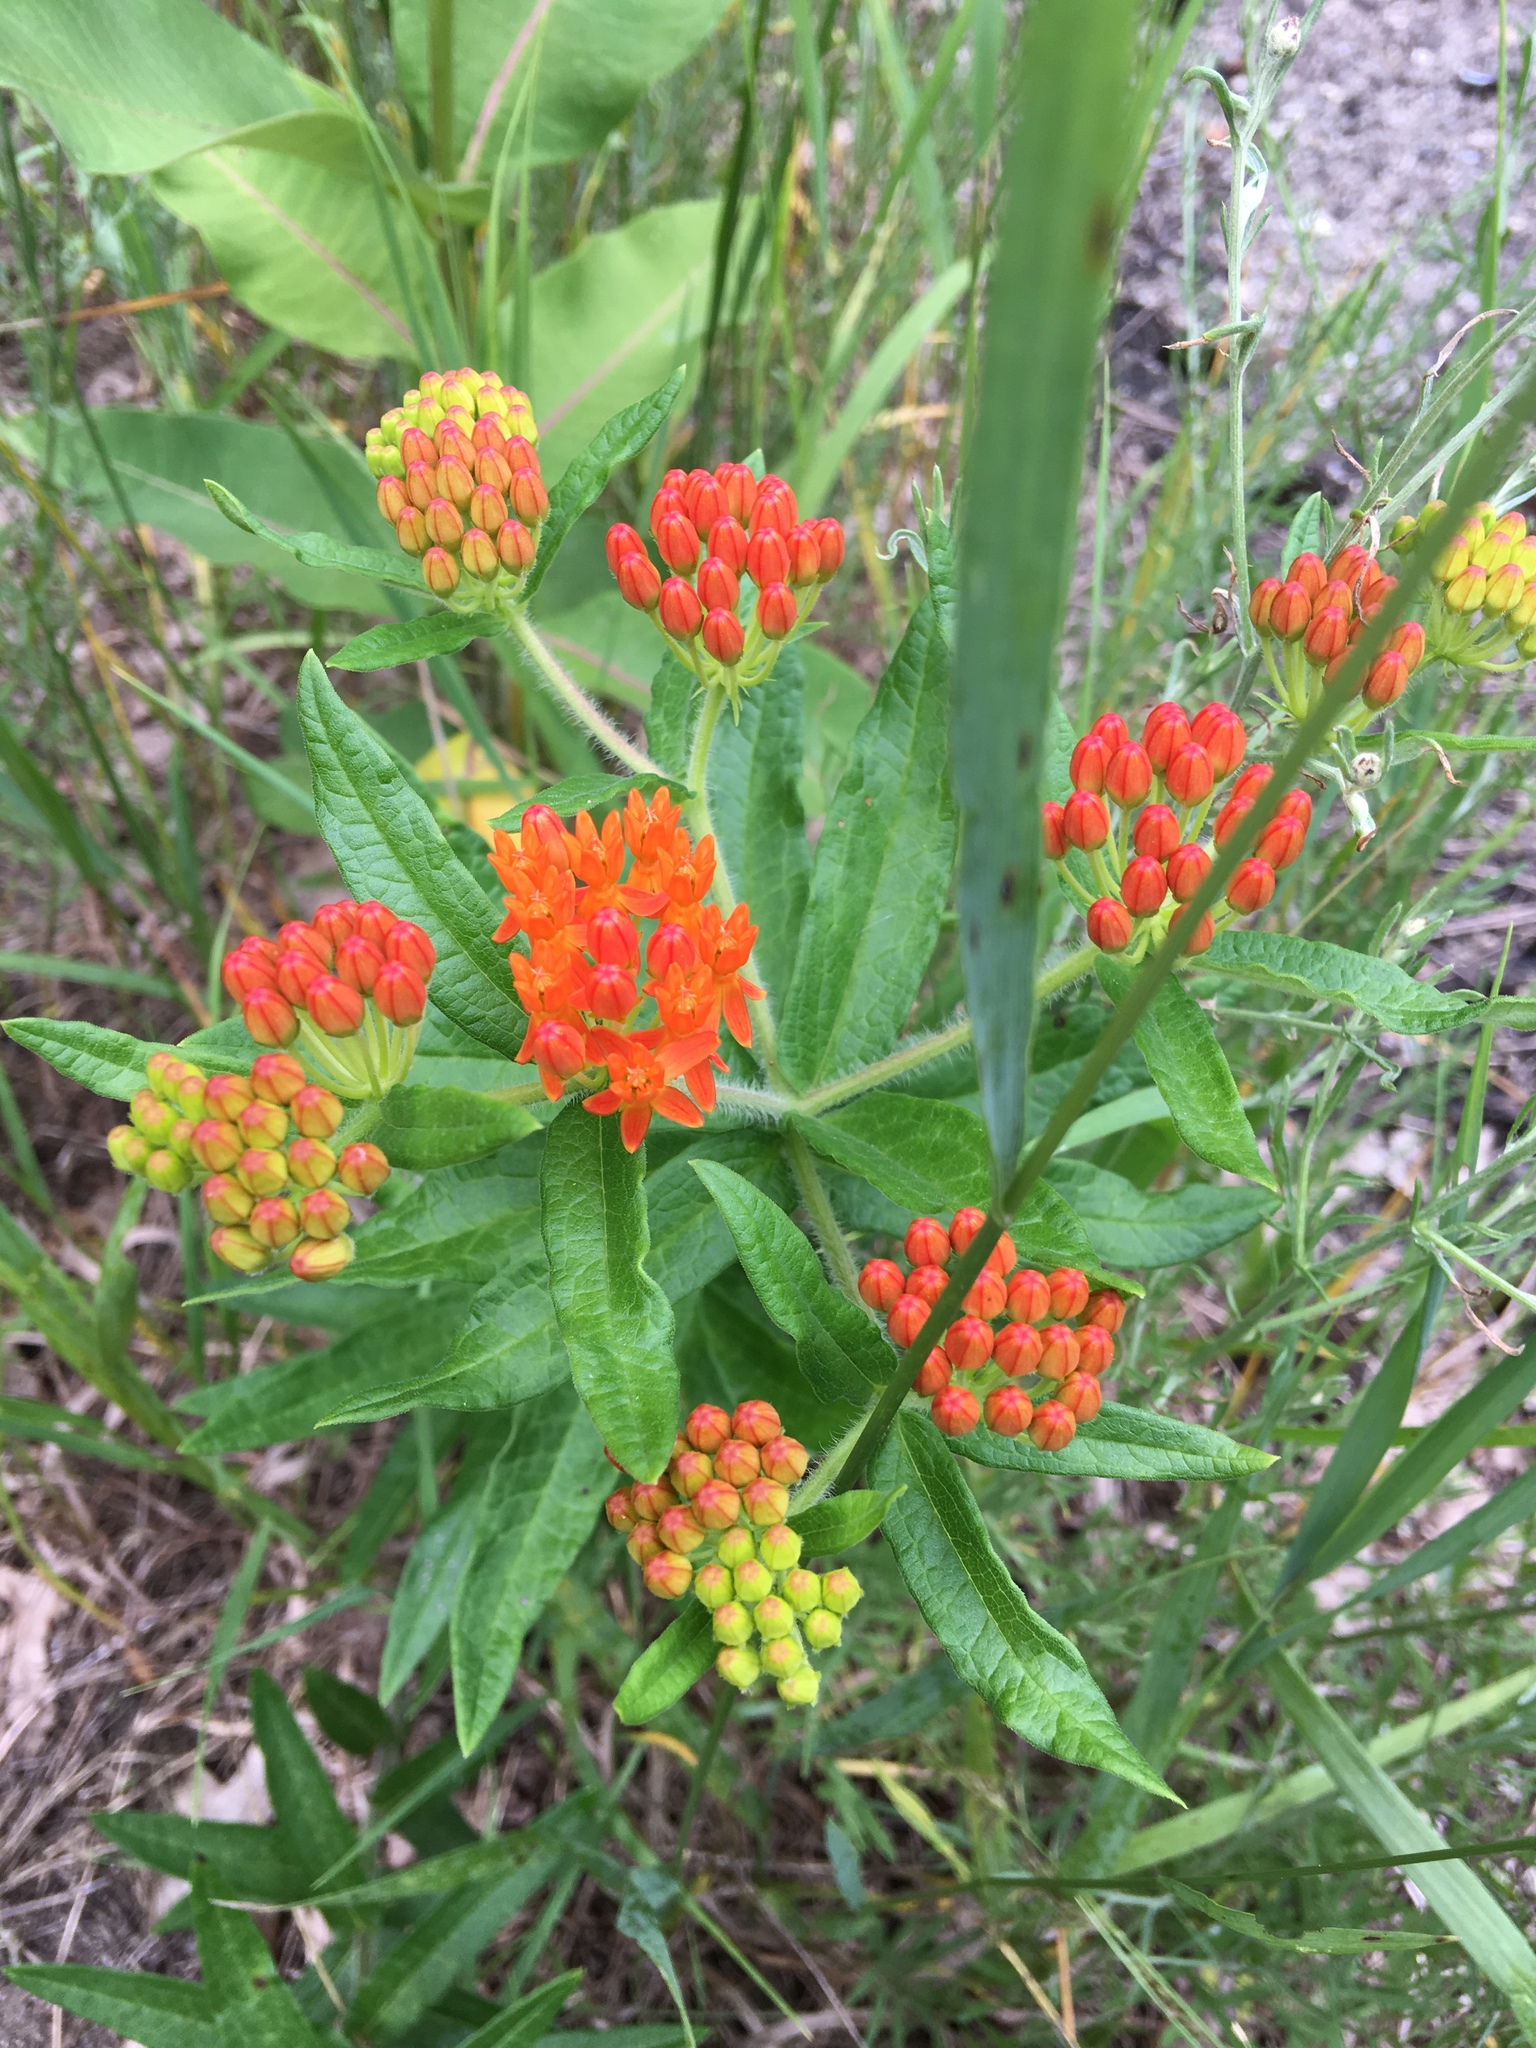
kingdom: Plantae
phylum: Tracheophyta
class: Magnoliopsida
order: Gentianales
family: Apocynaceae
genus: Asclepias
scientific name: Asclepias tuberosa
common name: Butterfly milkweed
